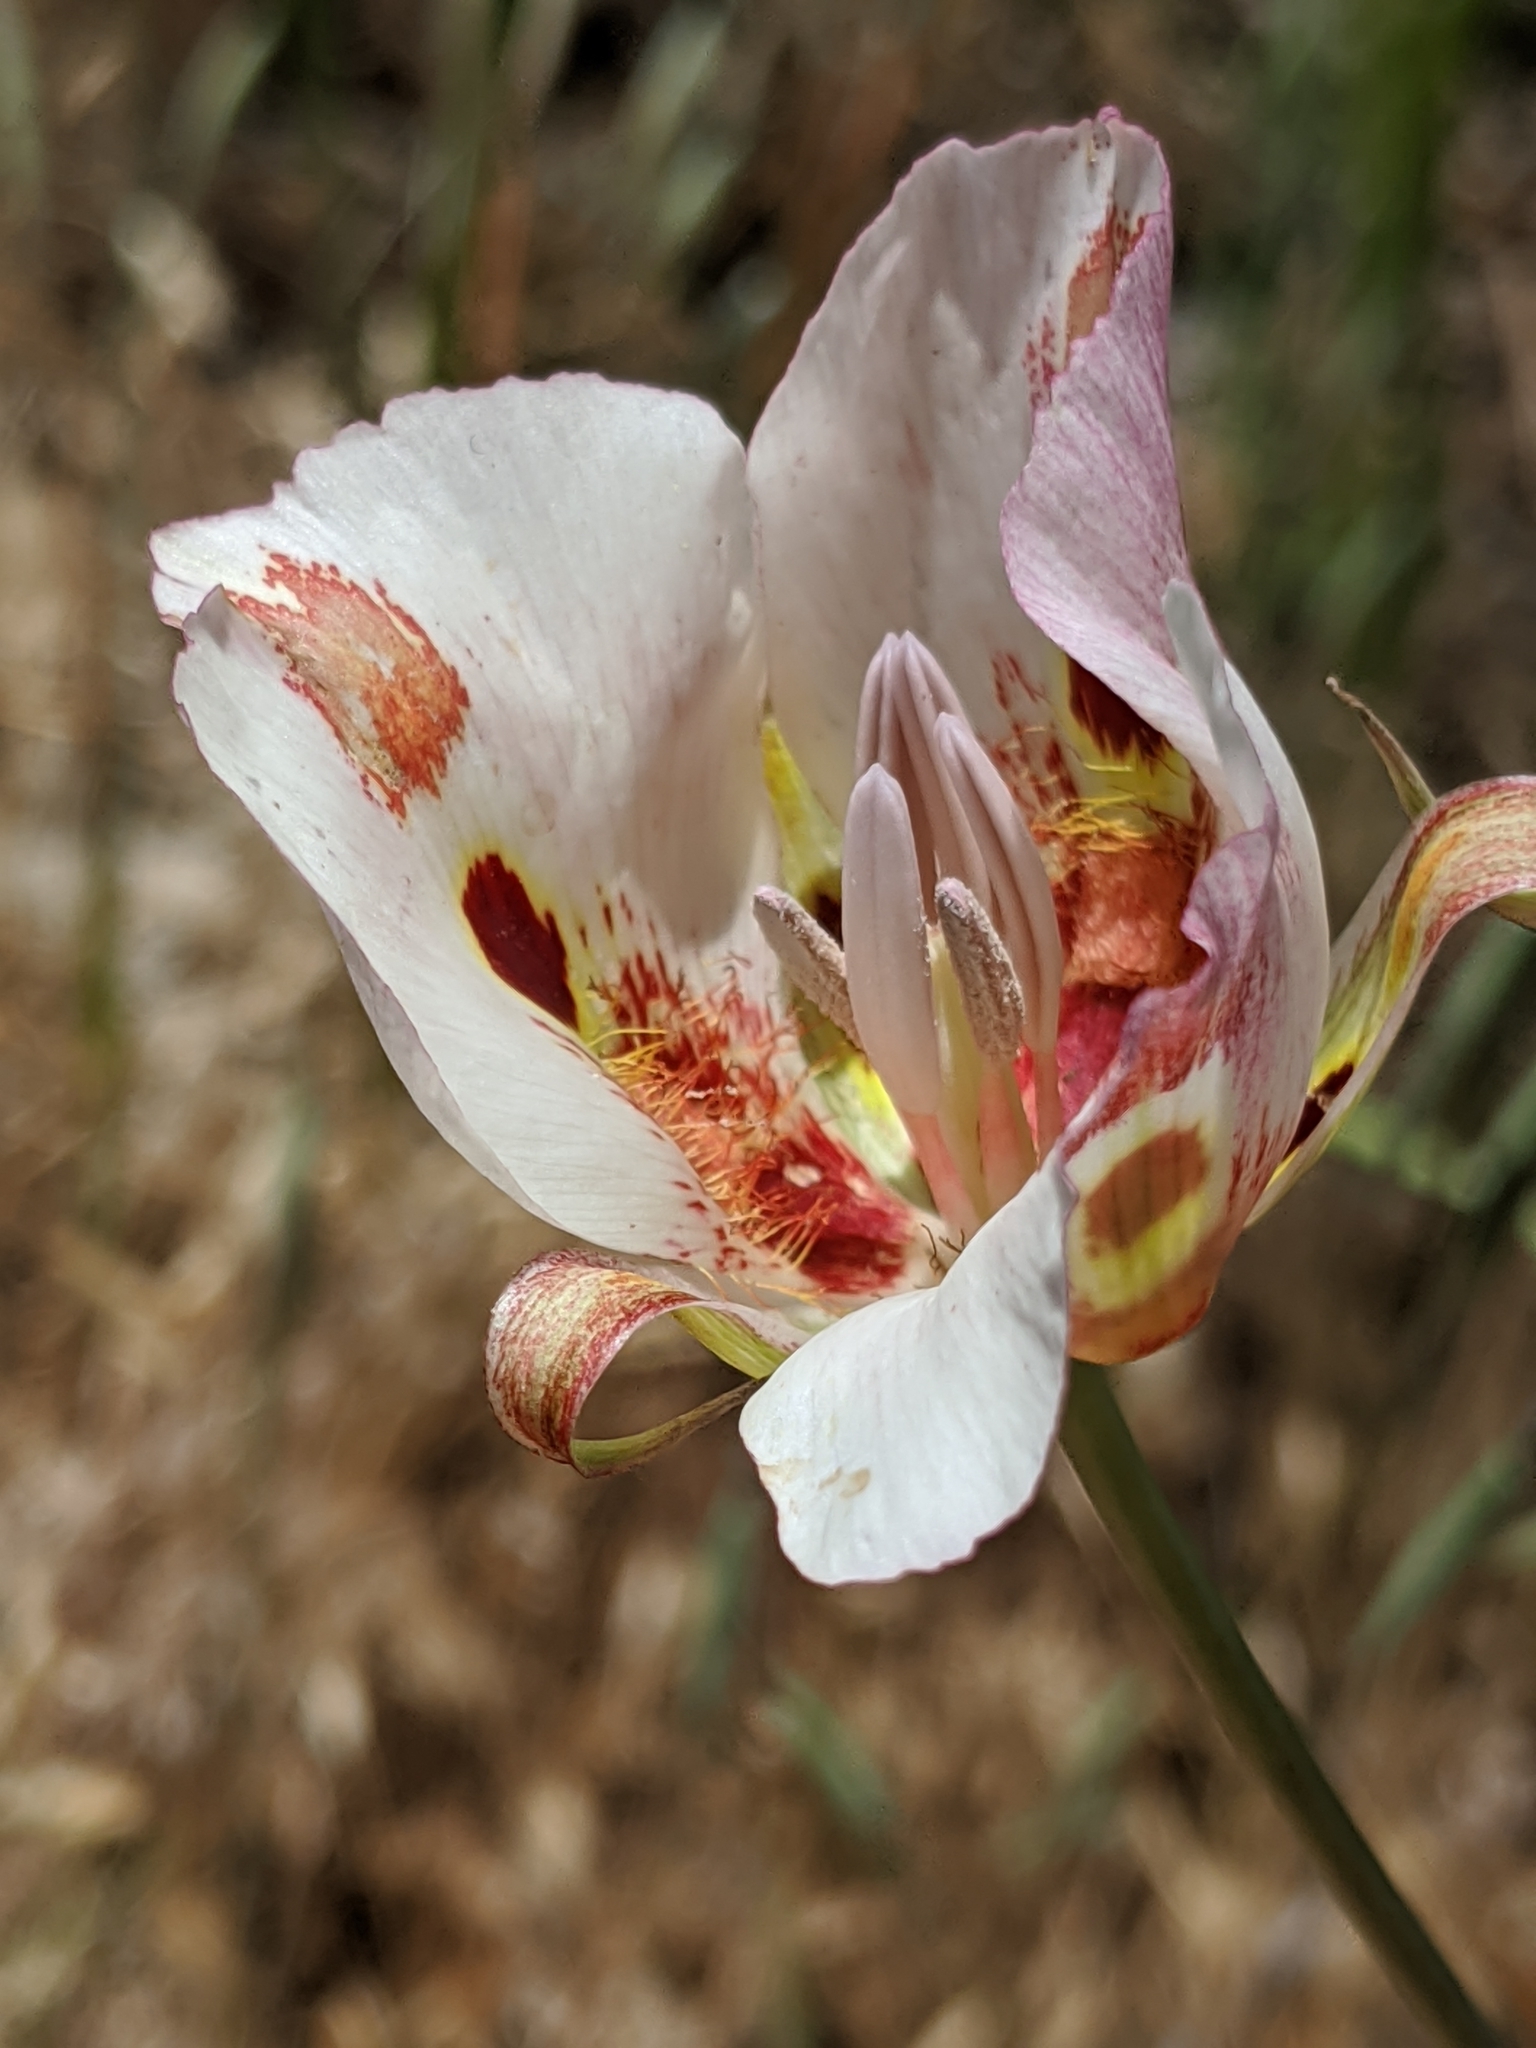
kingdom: Plantae
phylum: Tracheophyta
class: Liliopsida
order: Liliales
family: Liliaceae
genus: Calochortus
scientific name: Calochortus venustus
